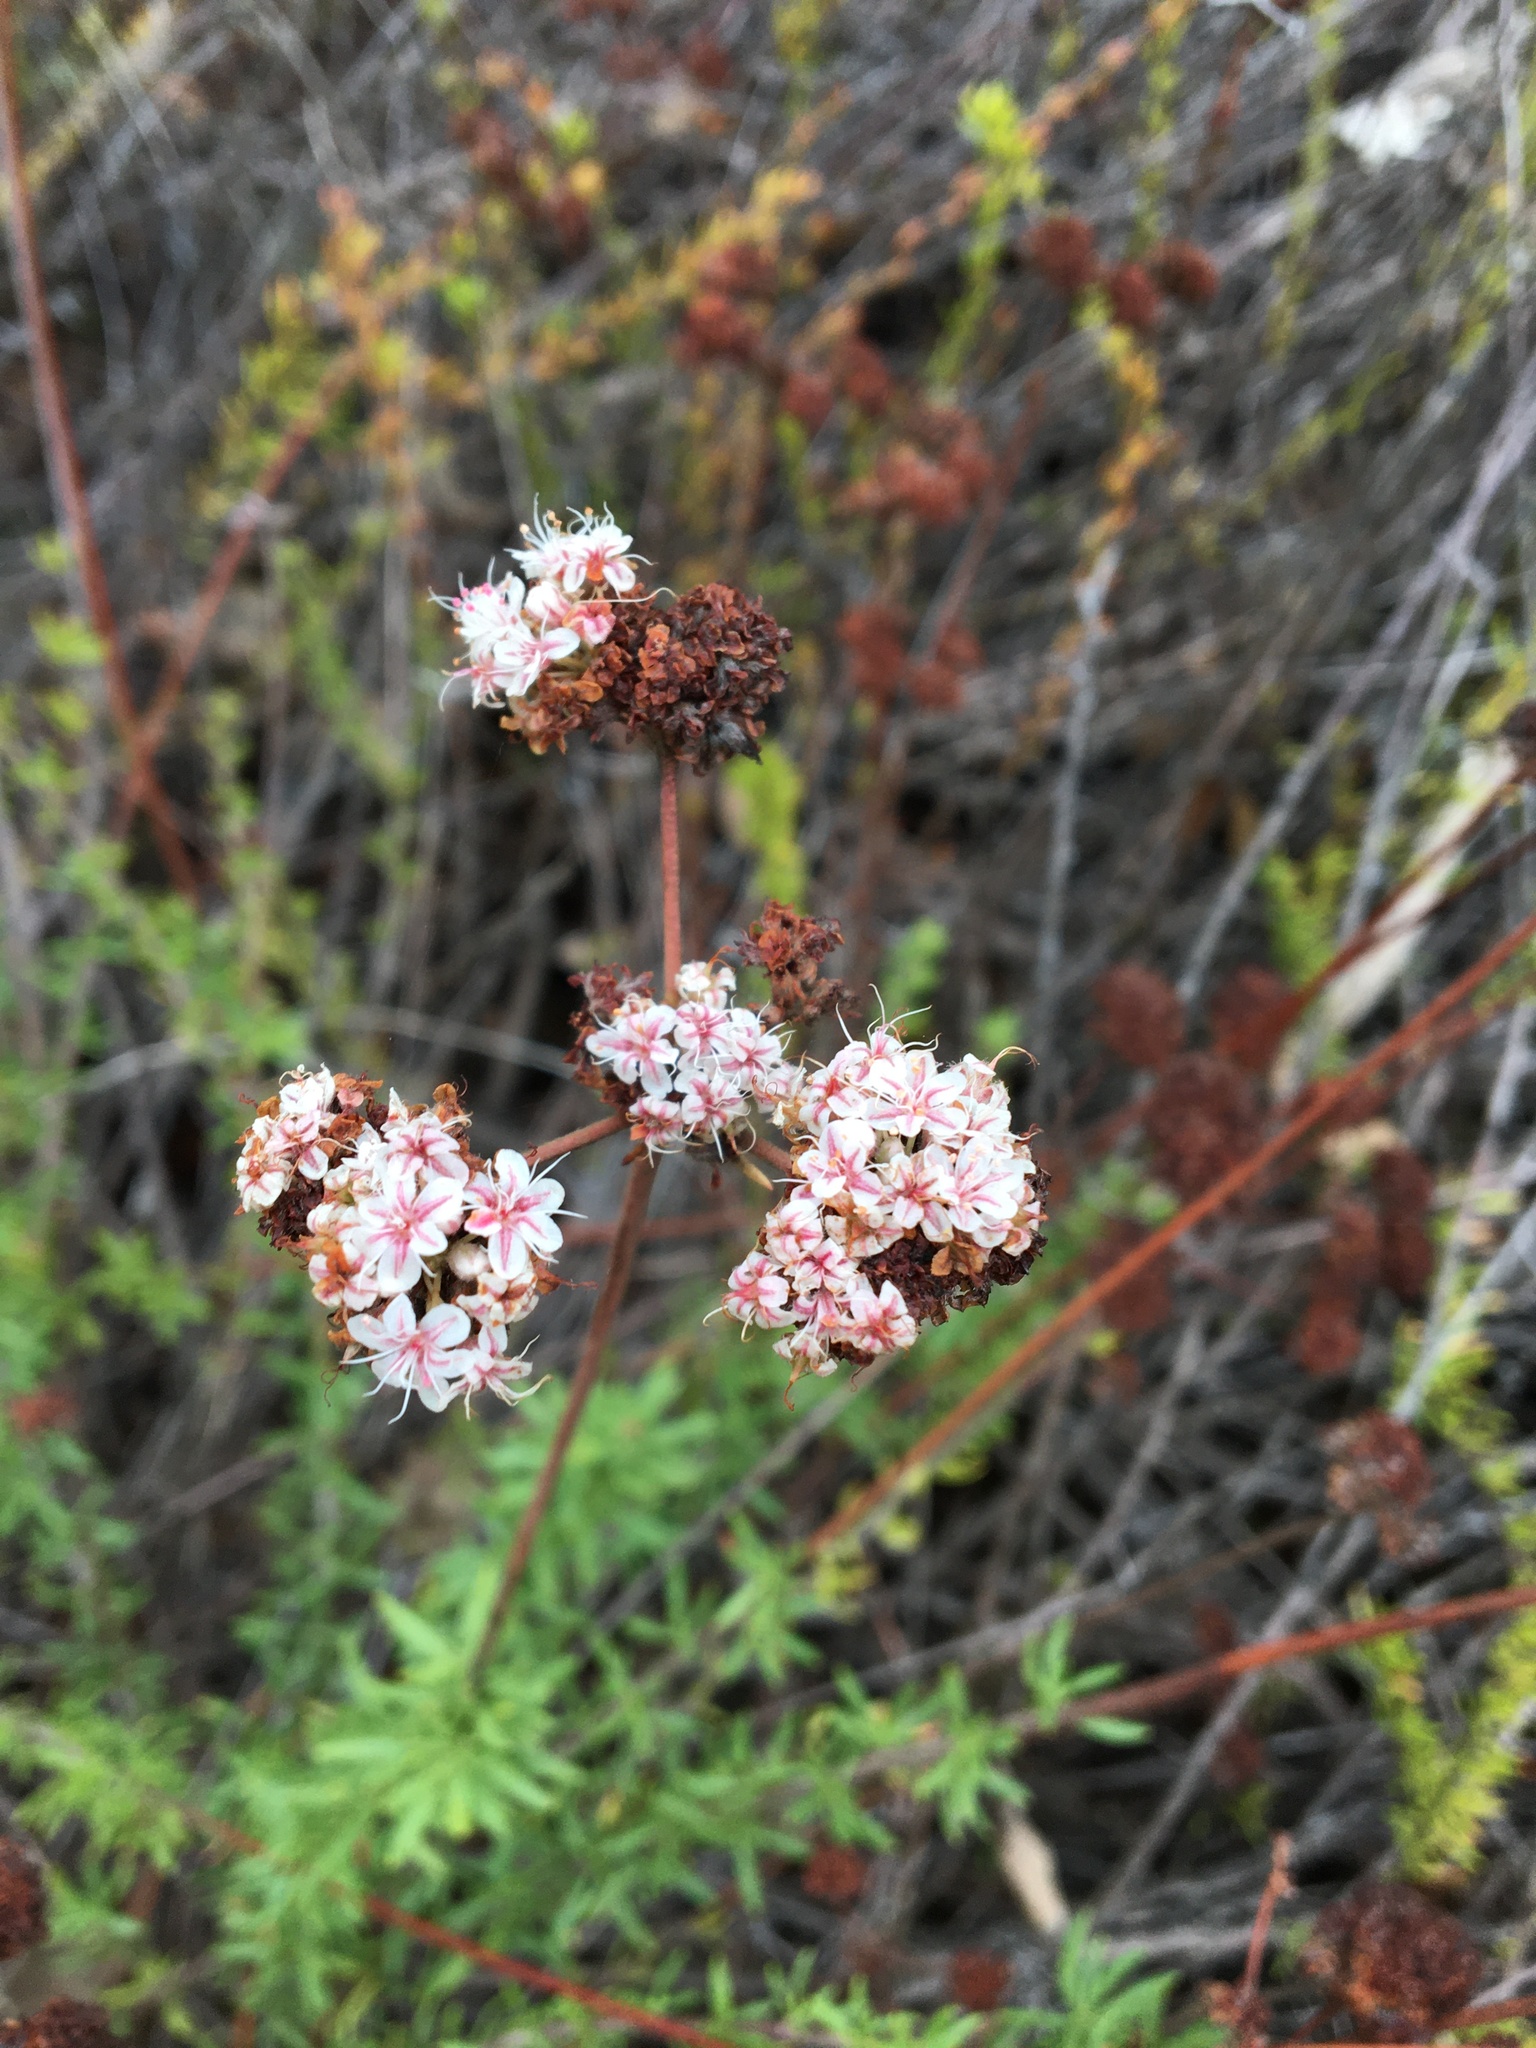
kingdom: Plantae
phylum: Tracheophyta
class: Magnoliopsida
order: Caryophyllales
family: Polygonaceae
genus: Eriogonum
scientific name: Eriogonum fasciculatum
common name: California wild buckwheat
